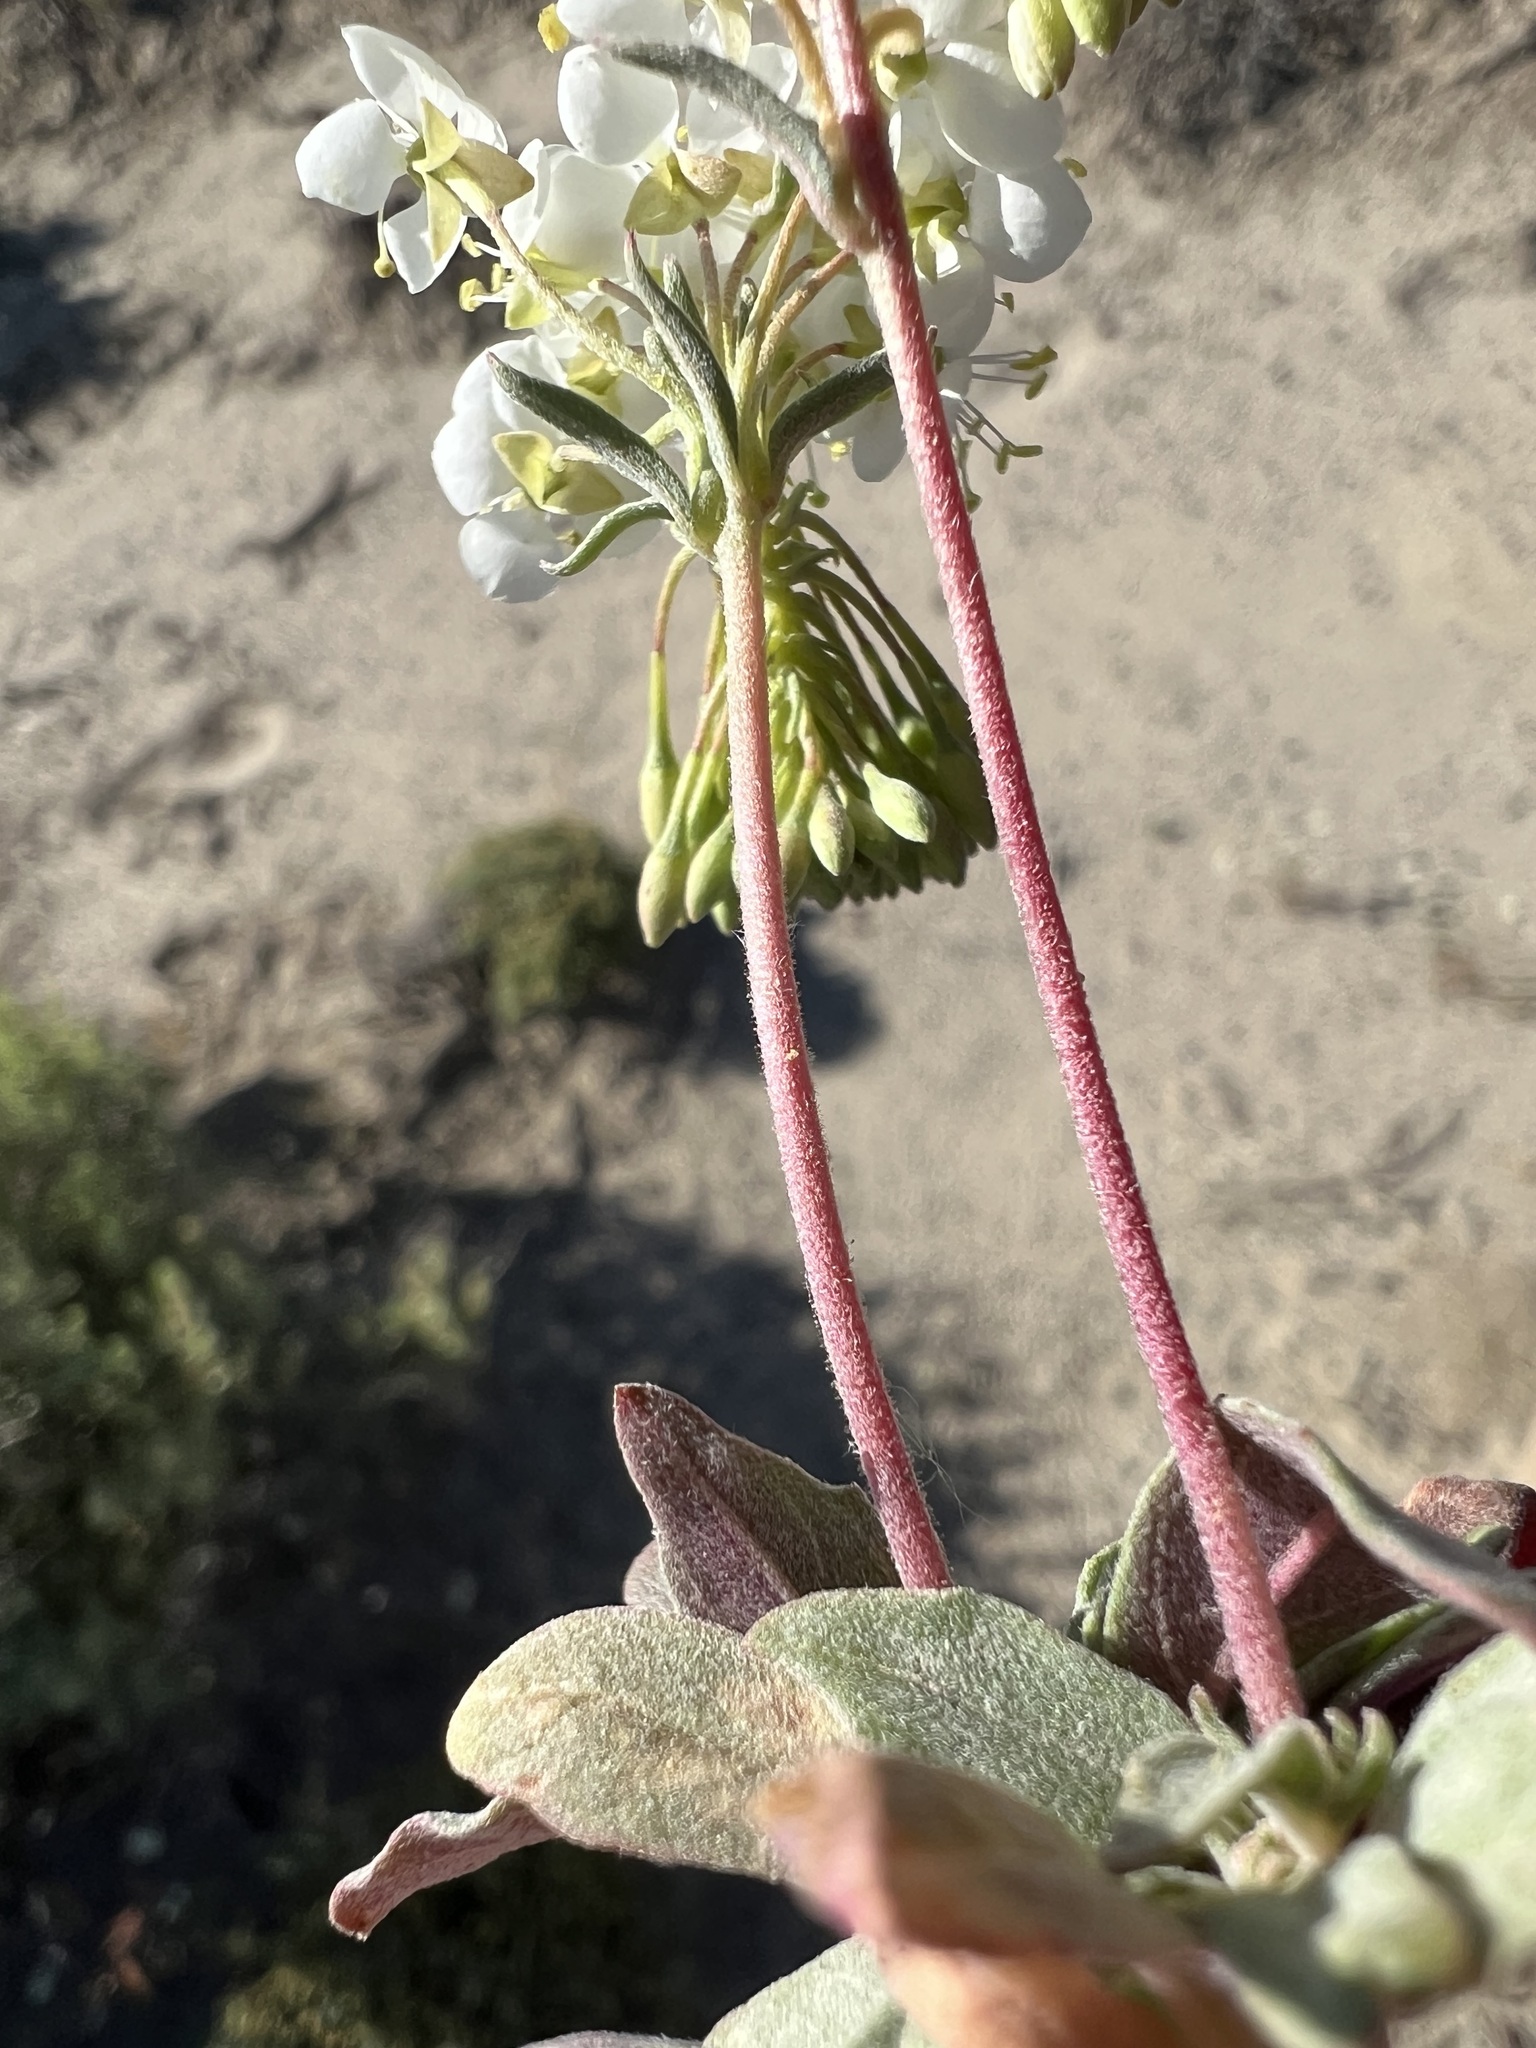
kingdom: Plantae
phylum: Tracheophyta
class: Magnoliopsida
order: Myrtales
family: Onagraceae
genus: Eremothera
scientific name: Eremothera boothii
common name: Booth's evening primrose
